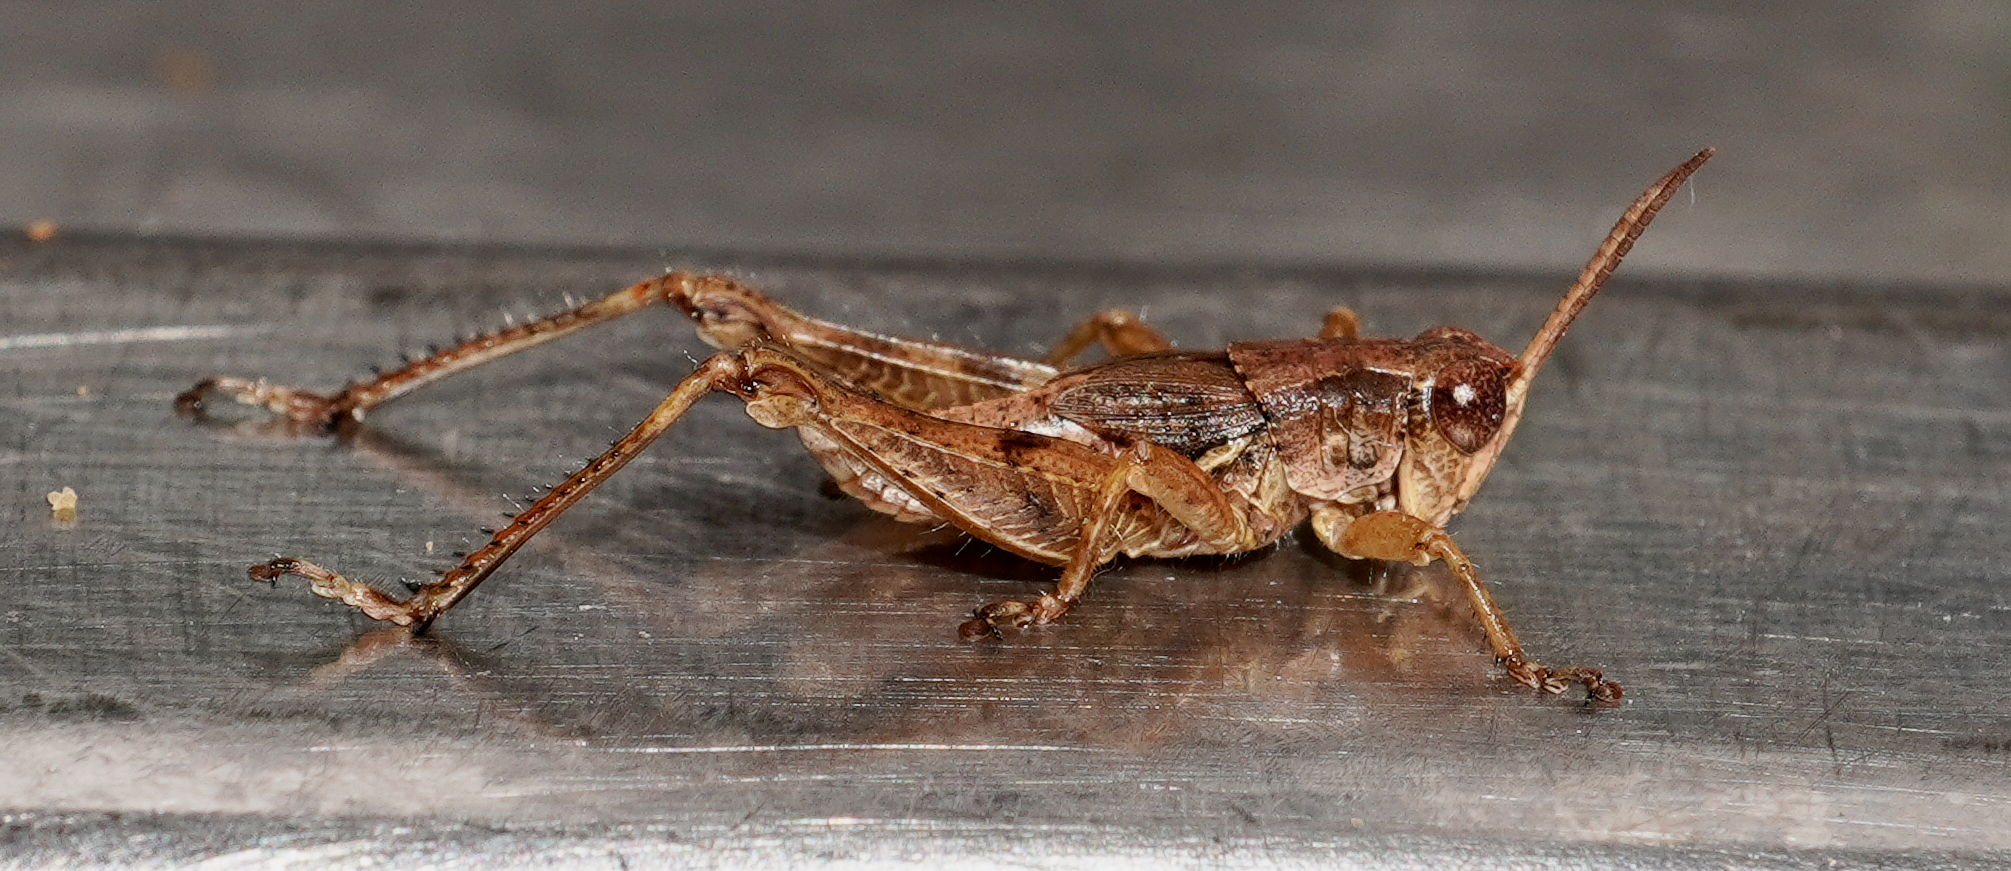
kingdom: Animalia
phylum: Arthropoda
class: Insecta
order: Orthoptera
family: Acrididae
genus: Phaulacridium
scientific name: Phaulacridium marginale
